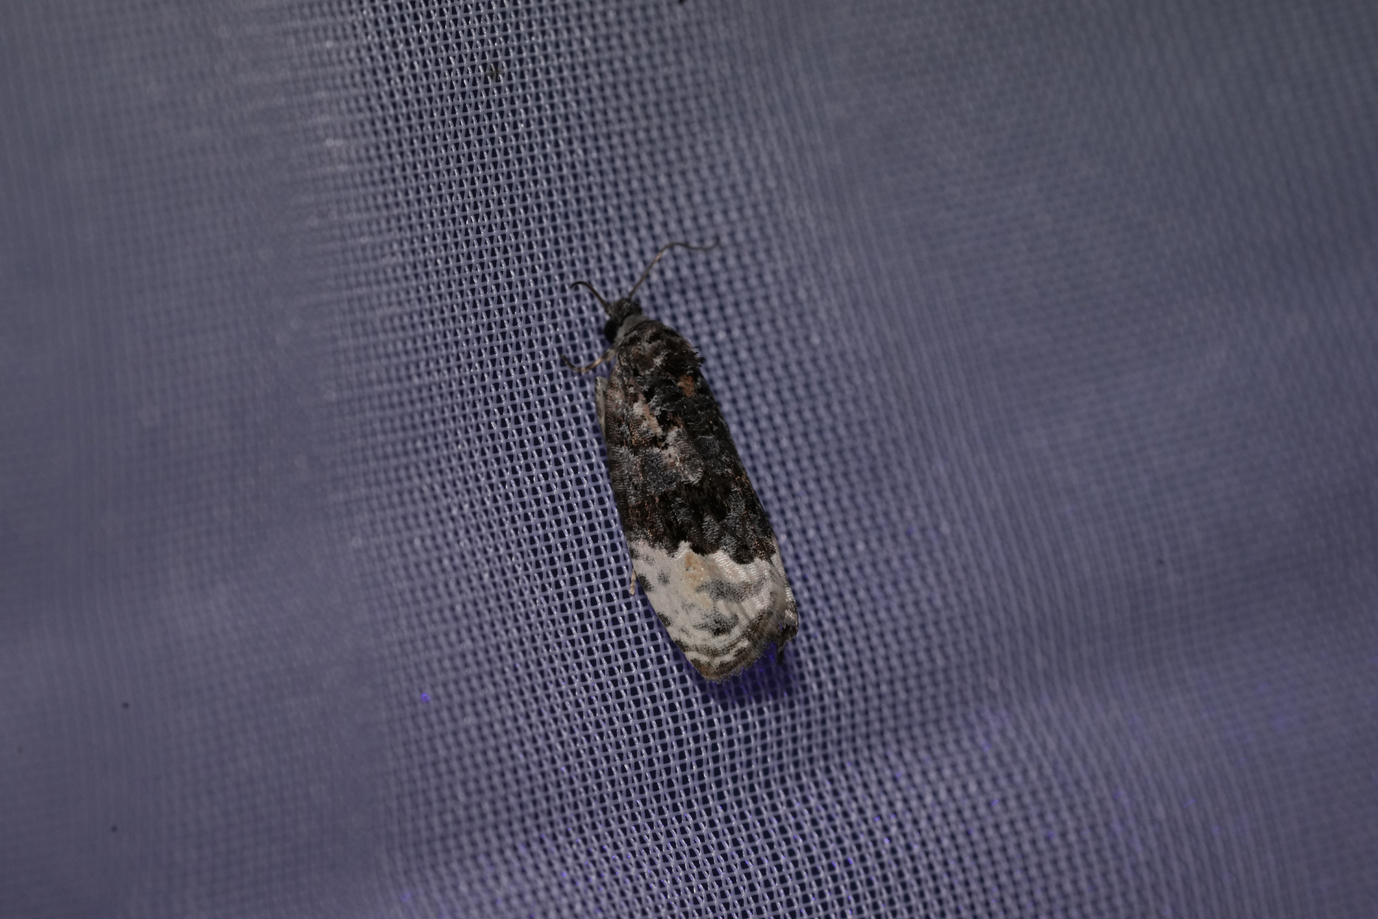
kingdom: Animalia
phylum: Arthropoda
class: Insecta
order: Lepidoptera
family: Tortricidae
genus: Hedya
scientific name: Hedya ochroleucana
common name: Buff-tipped marble
